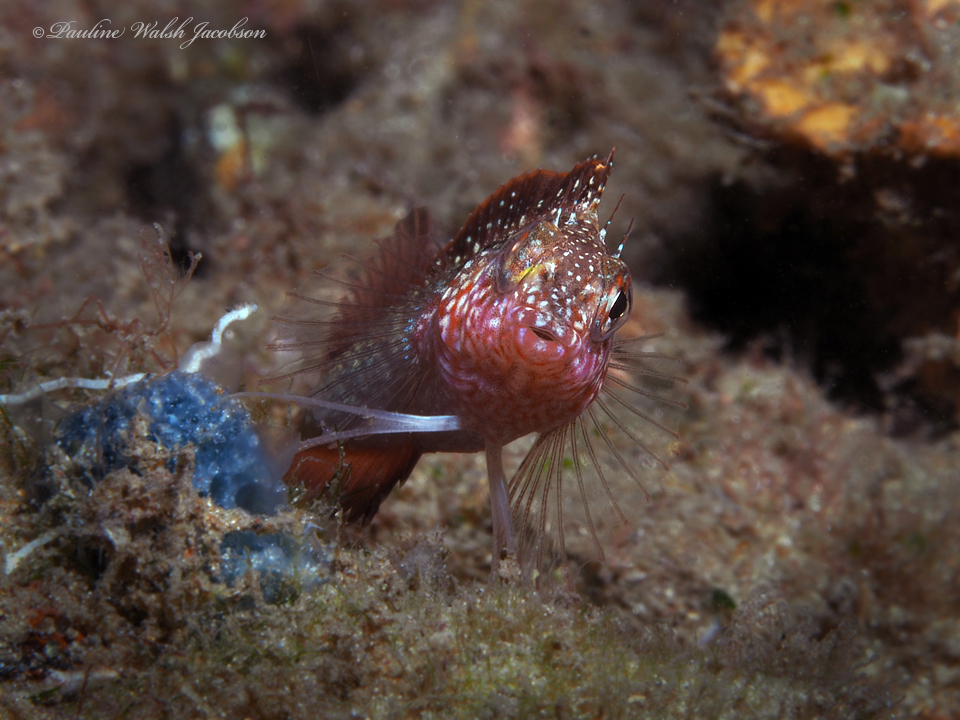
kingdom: Animalia
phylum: Chordata
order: Perciformes
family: Labrisomidae
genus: Malacoctenus
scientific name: Malacoctenus macropus
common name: Rosy blenny
